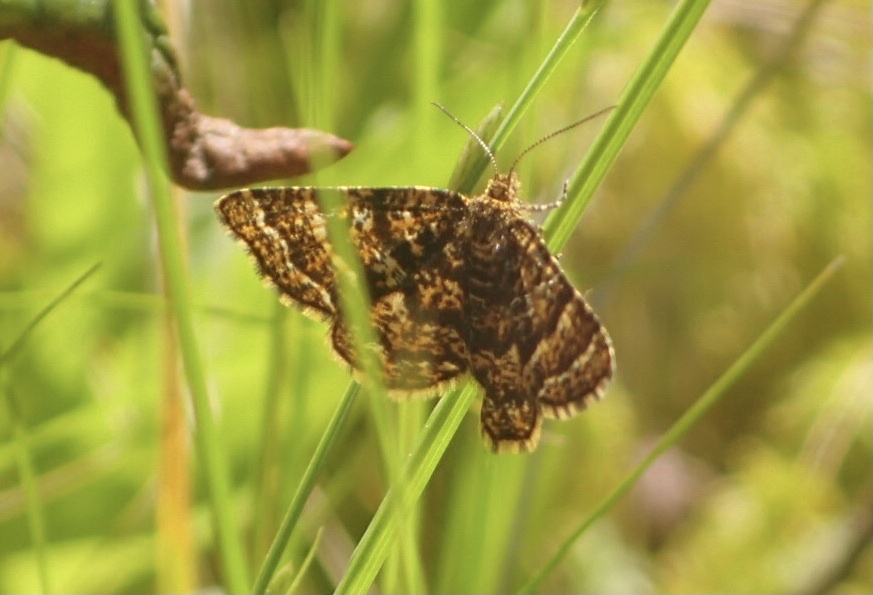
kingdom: Animalia
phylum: Arthropoda
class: Insecta
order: Lepidoptera
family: Geometridae
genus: Macaria
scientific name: Macaria truncataria
